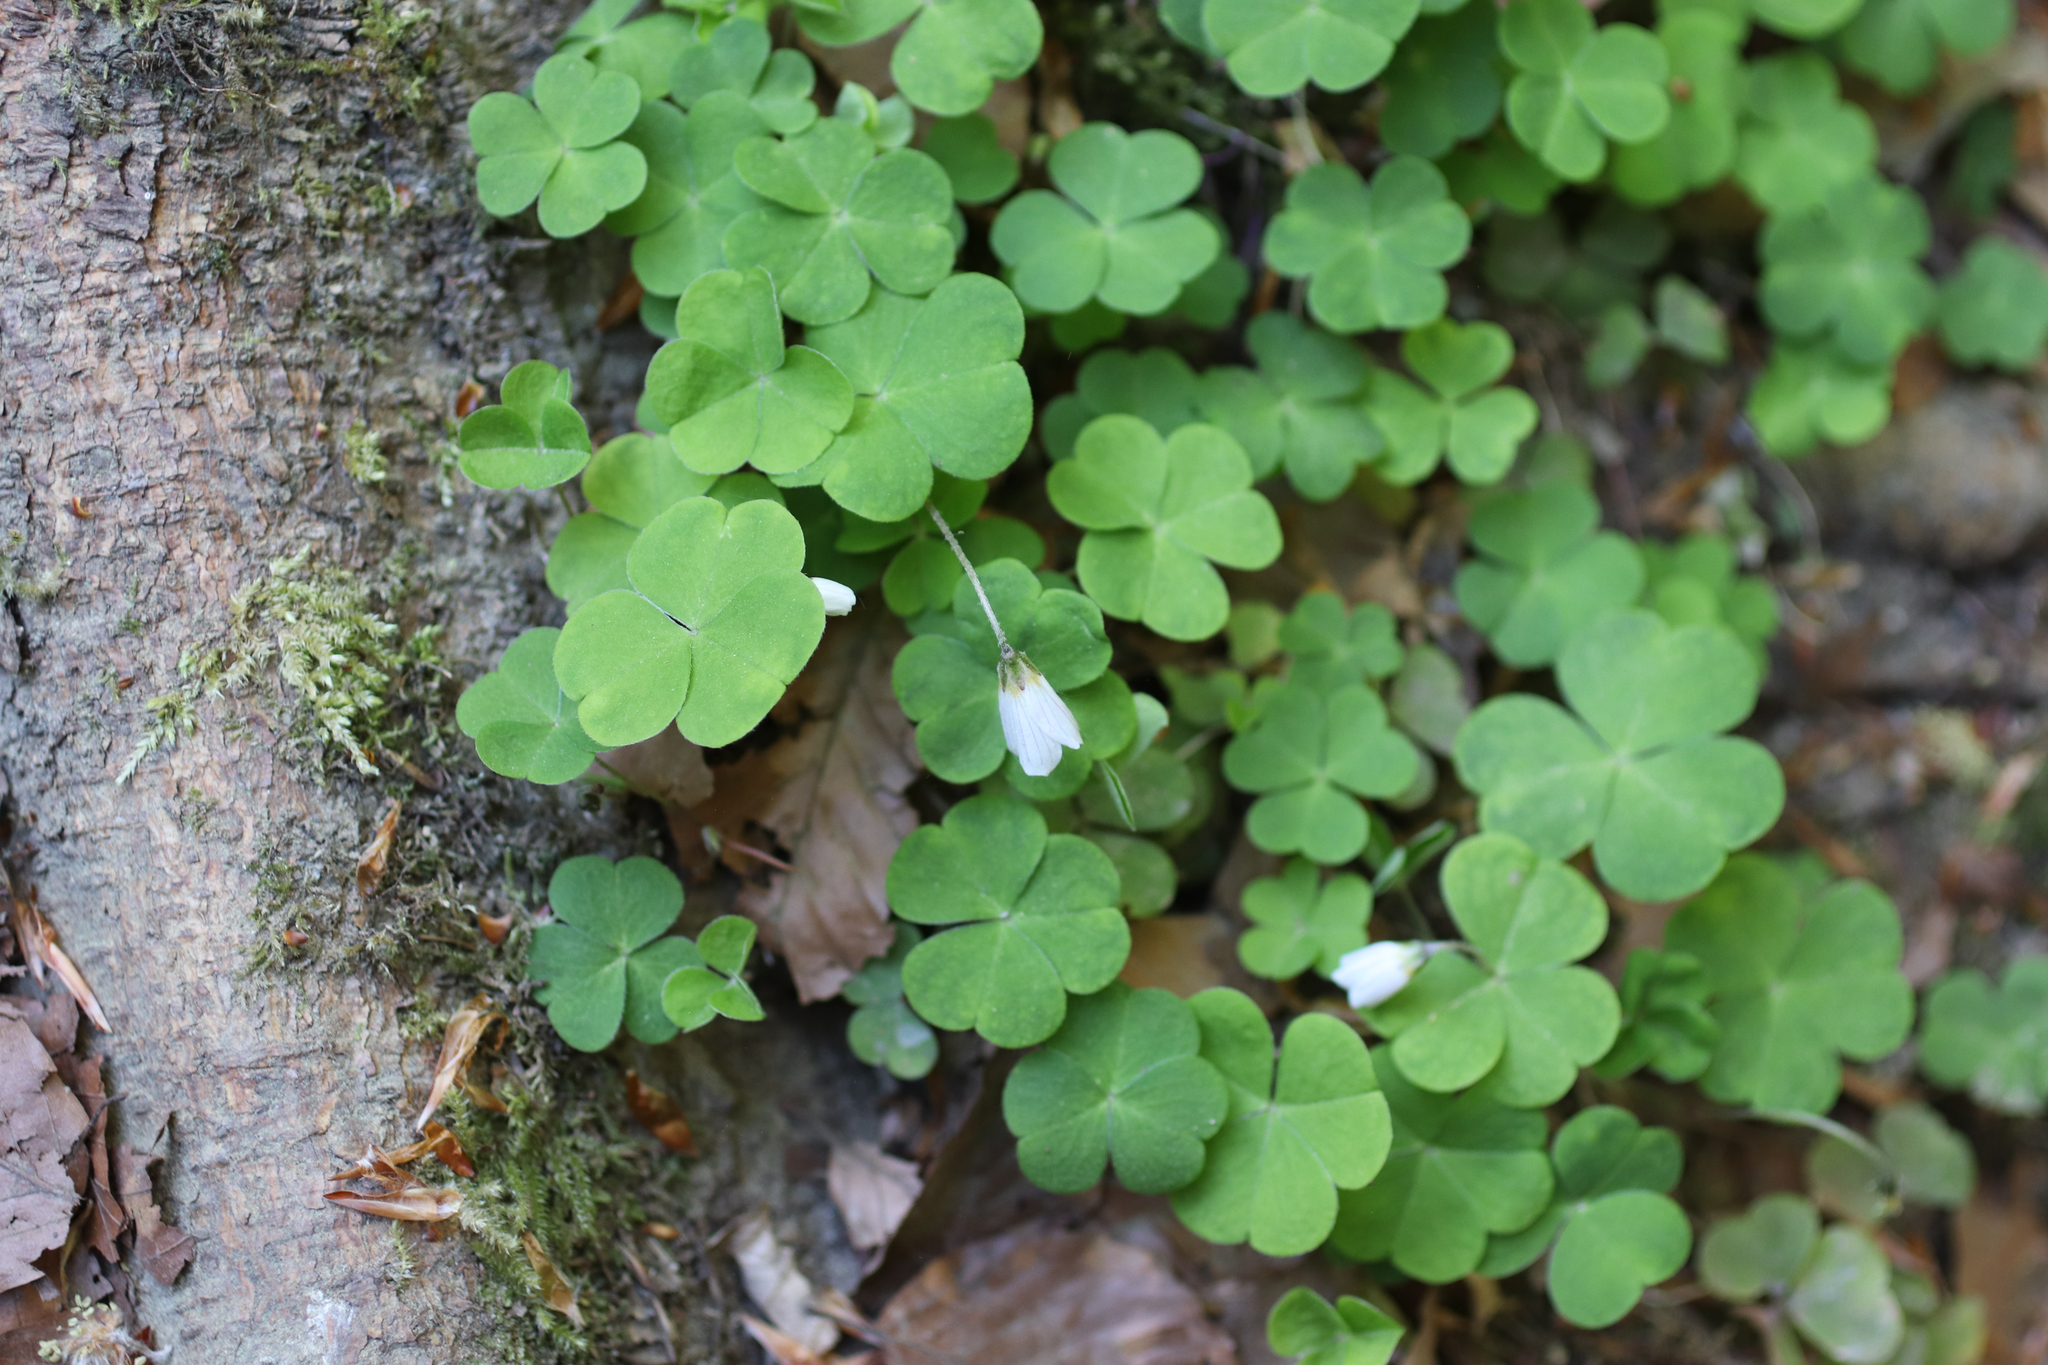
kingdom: Plantae
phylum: Tracheophyta
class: Magnoliopsida
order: Oxalidales
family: Oxalidaceae
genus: Oxalis
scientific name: Oxalis acetosella
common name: Wood-sorrel
